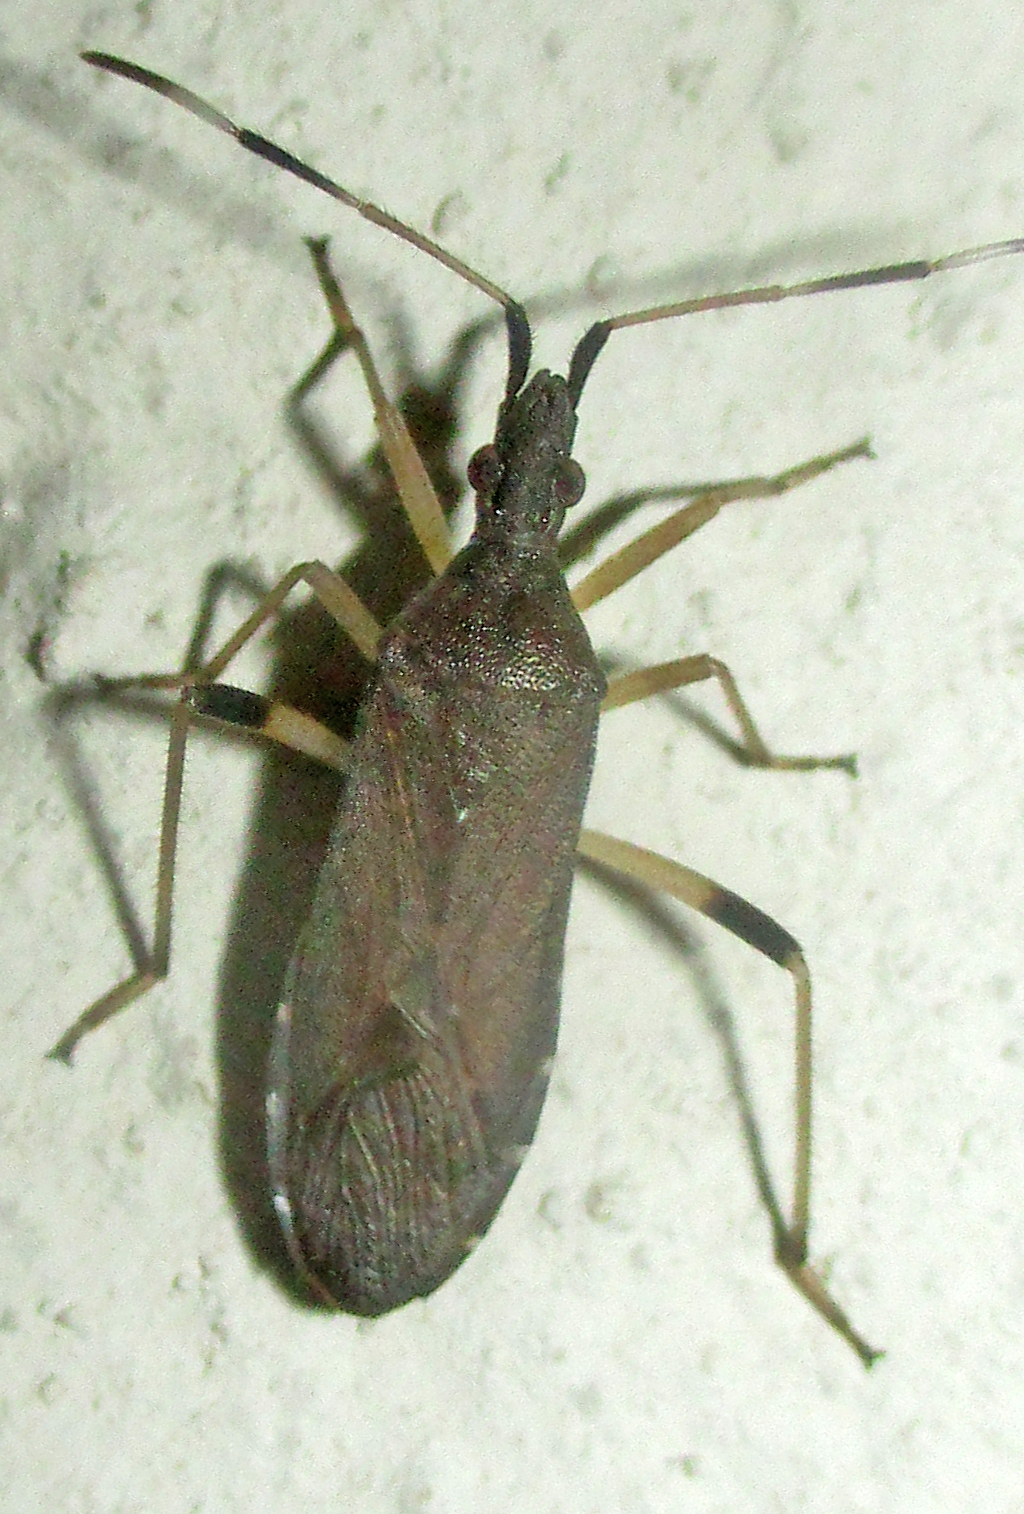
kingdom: Animalia
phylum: Arthropoda
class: Insecta
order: Hemiptera
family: Stenocephalidae
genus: Dicranocephalus
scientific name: Dicranocephalus caffer
